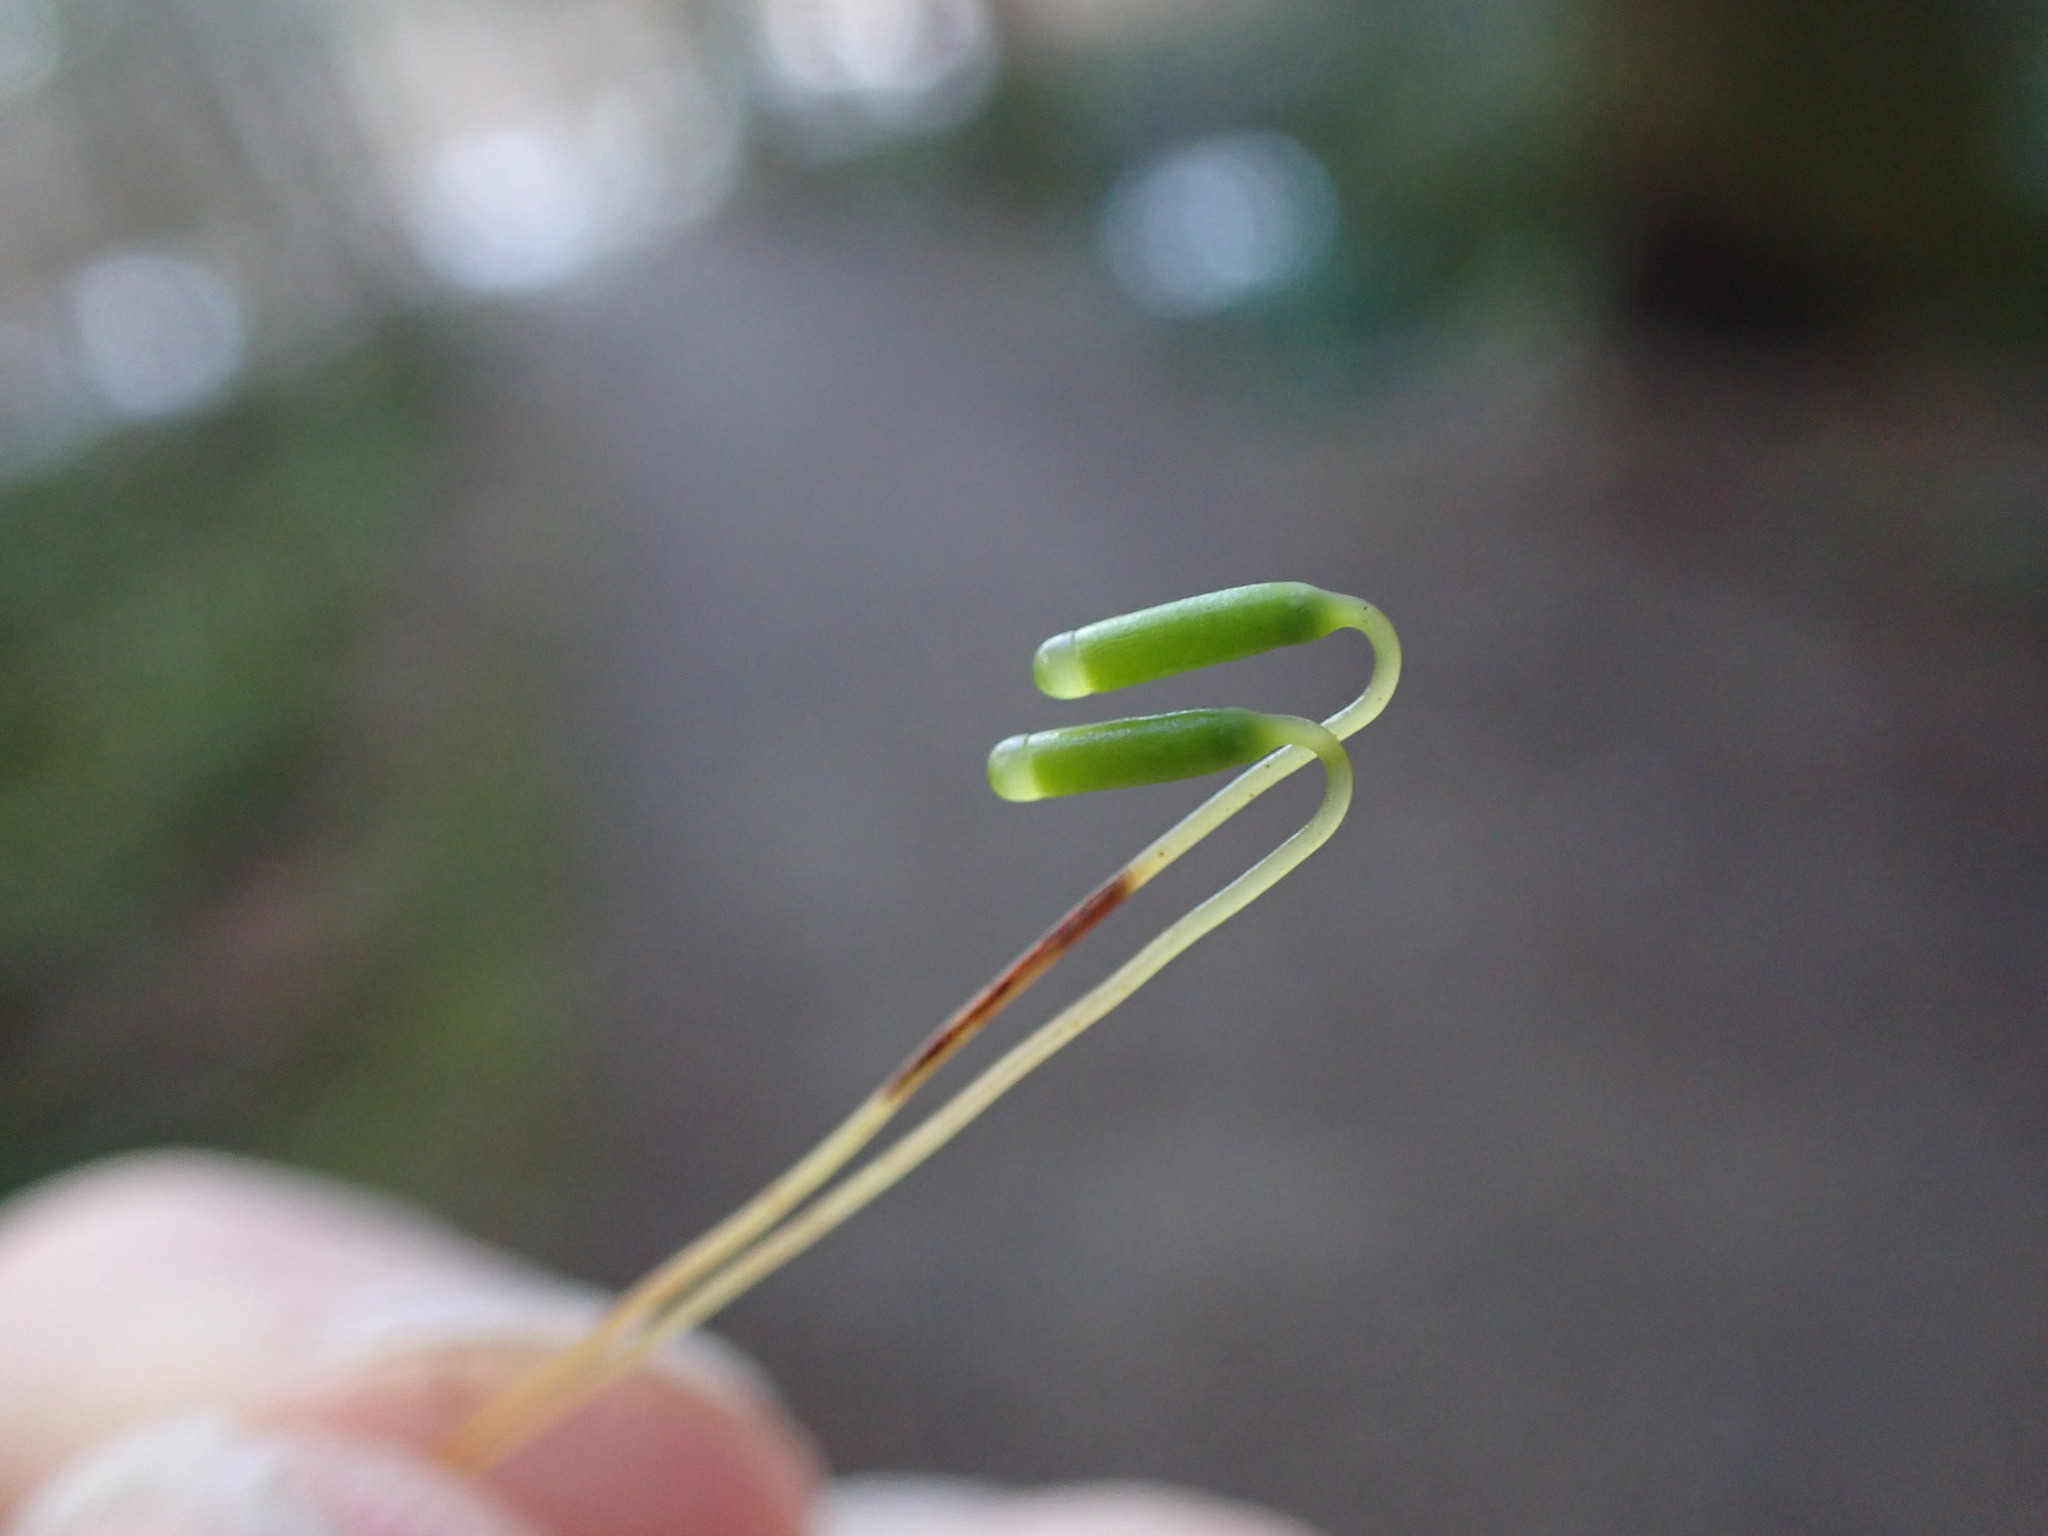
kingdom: Plantae
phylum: Bryophyta
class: Bryopsida
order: Bryales
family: Mniaceae
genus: Leucolepis
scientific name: Leucolepis acanthoneura
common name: Leucolepis umbrella moss
